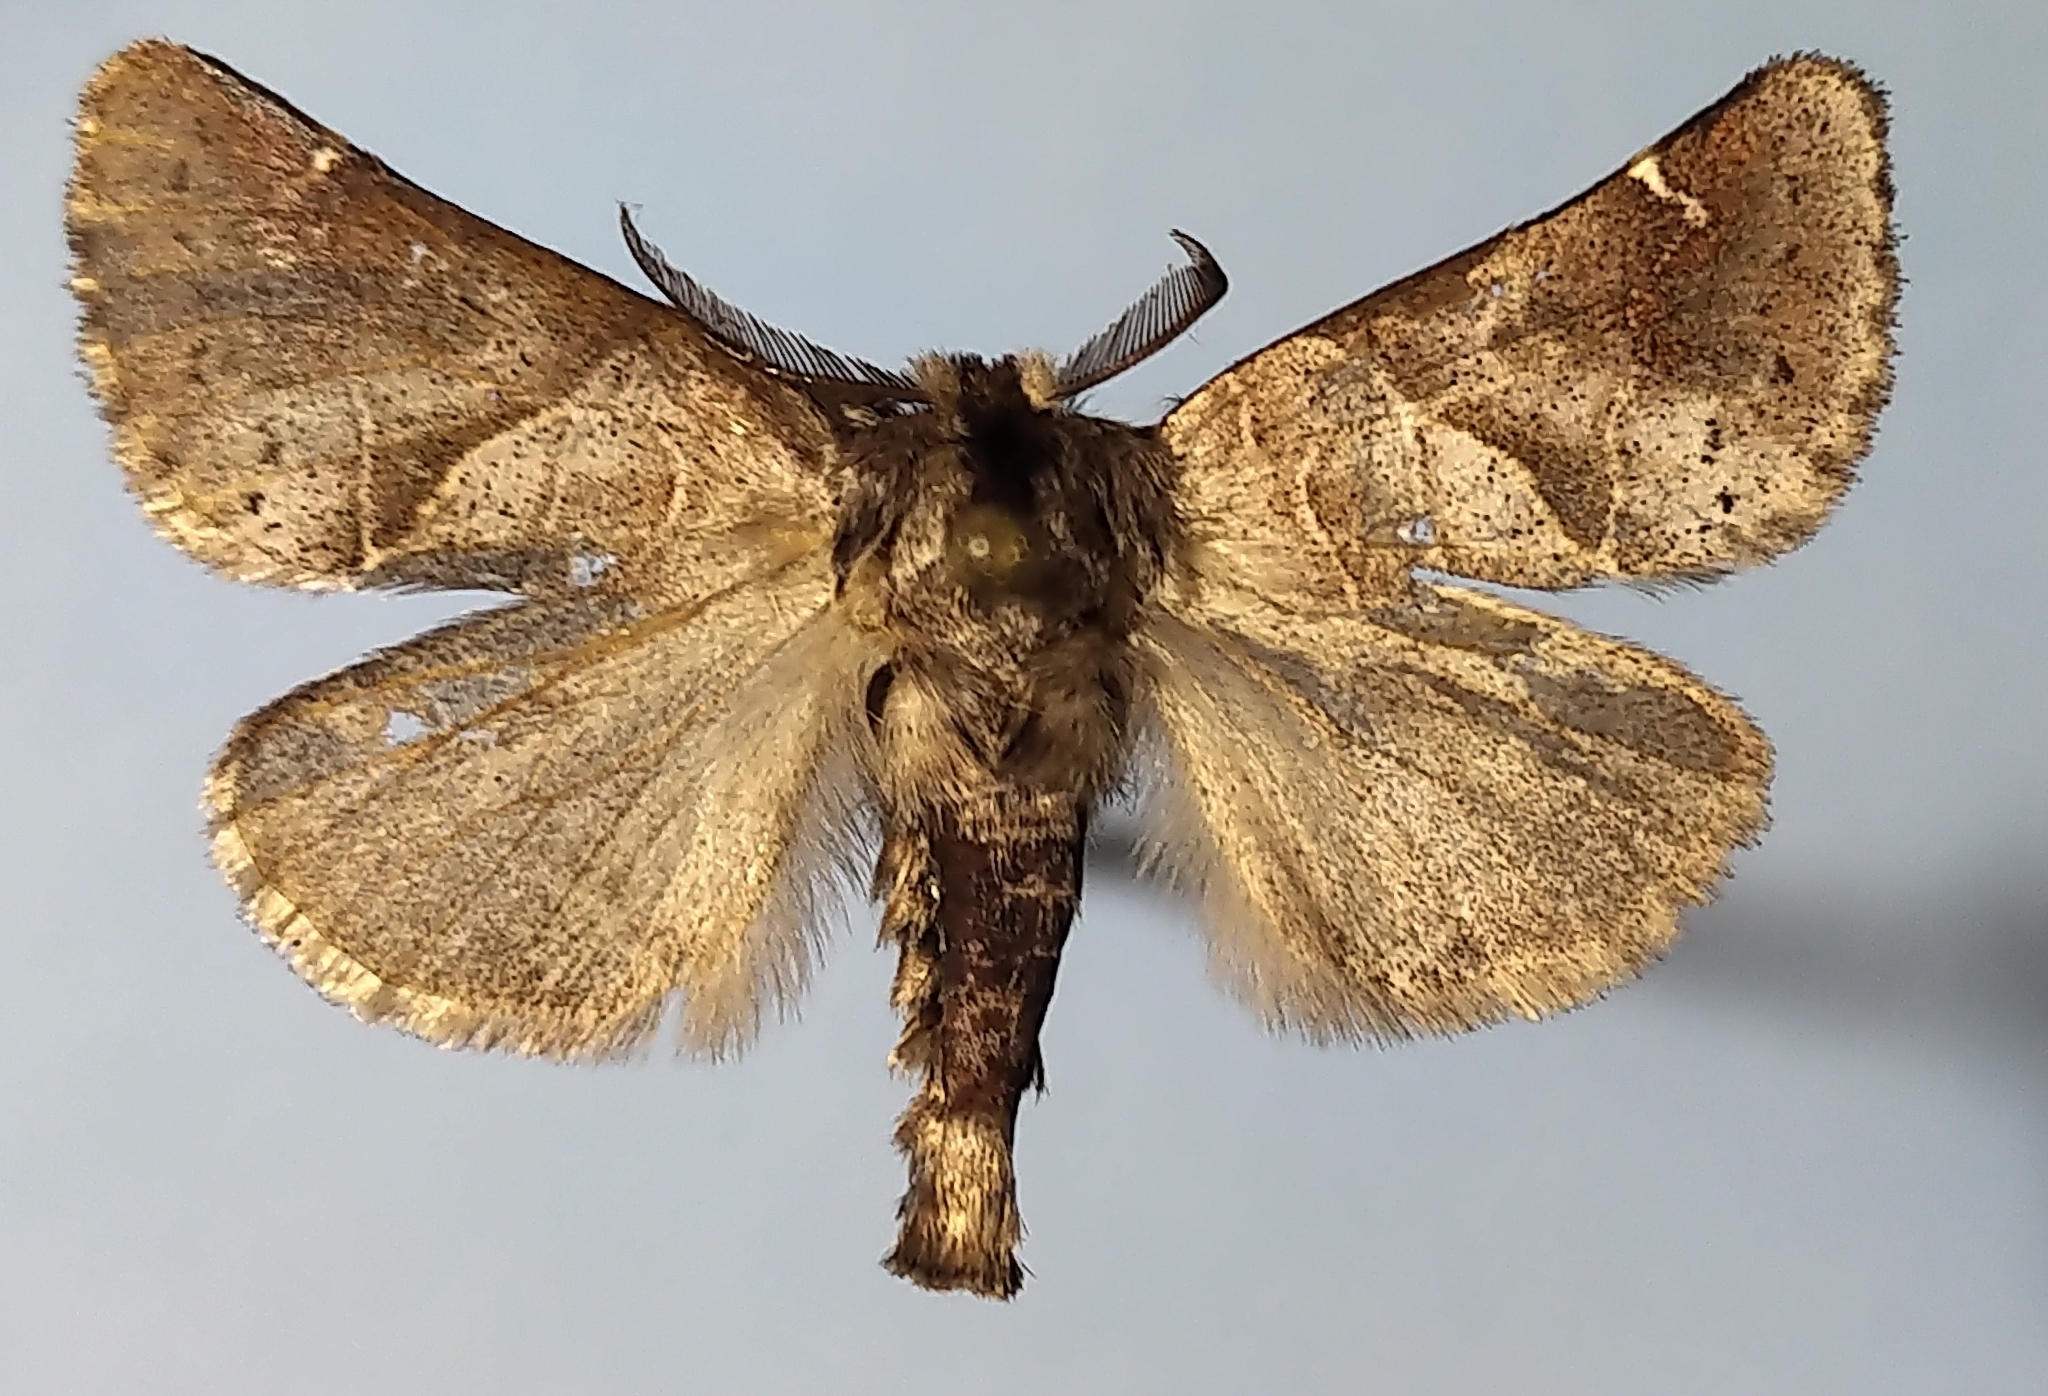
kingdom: Animalia
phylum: Arthropoda
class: Insecta
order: Lepidoptera
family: Notodontidae
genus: Clostera
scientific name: Clostera apicalis
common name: Apical prominent
